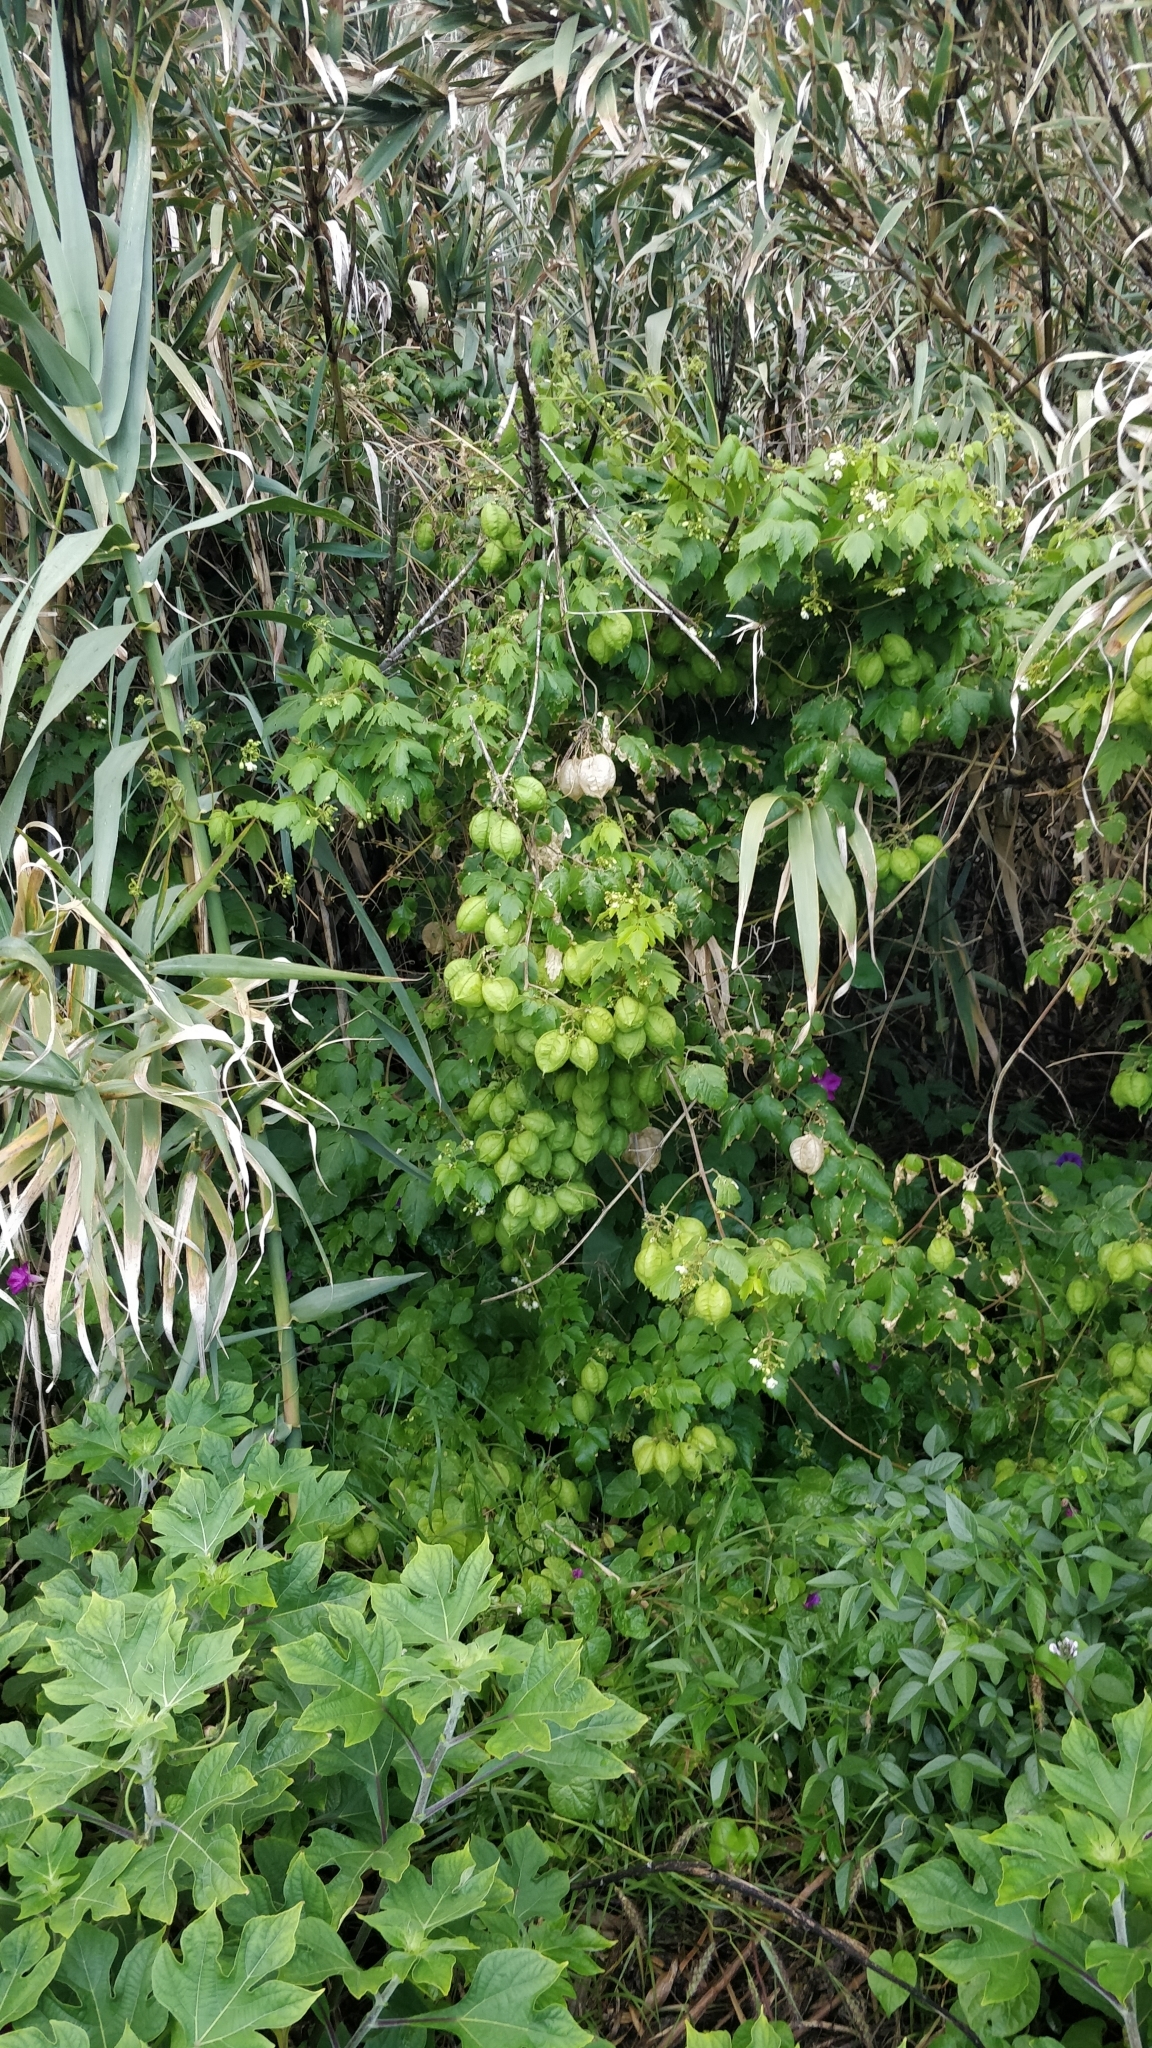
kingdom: Plantae
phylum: Tracheophyta
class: Magnoliopsida
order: Sapindales
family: Sapindaceae
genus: Cardiospermum
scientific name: Cardiospermum grandiflorum
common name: Balloon vine
